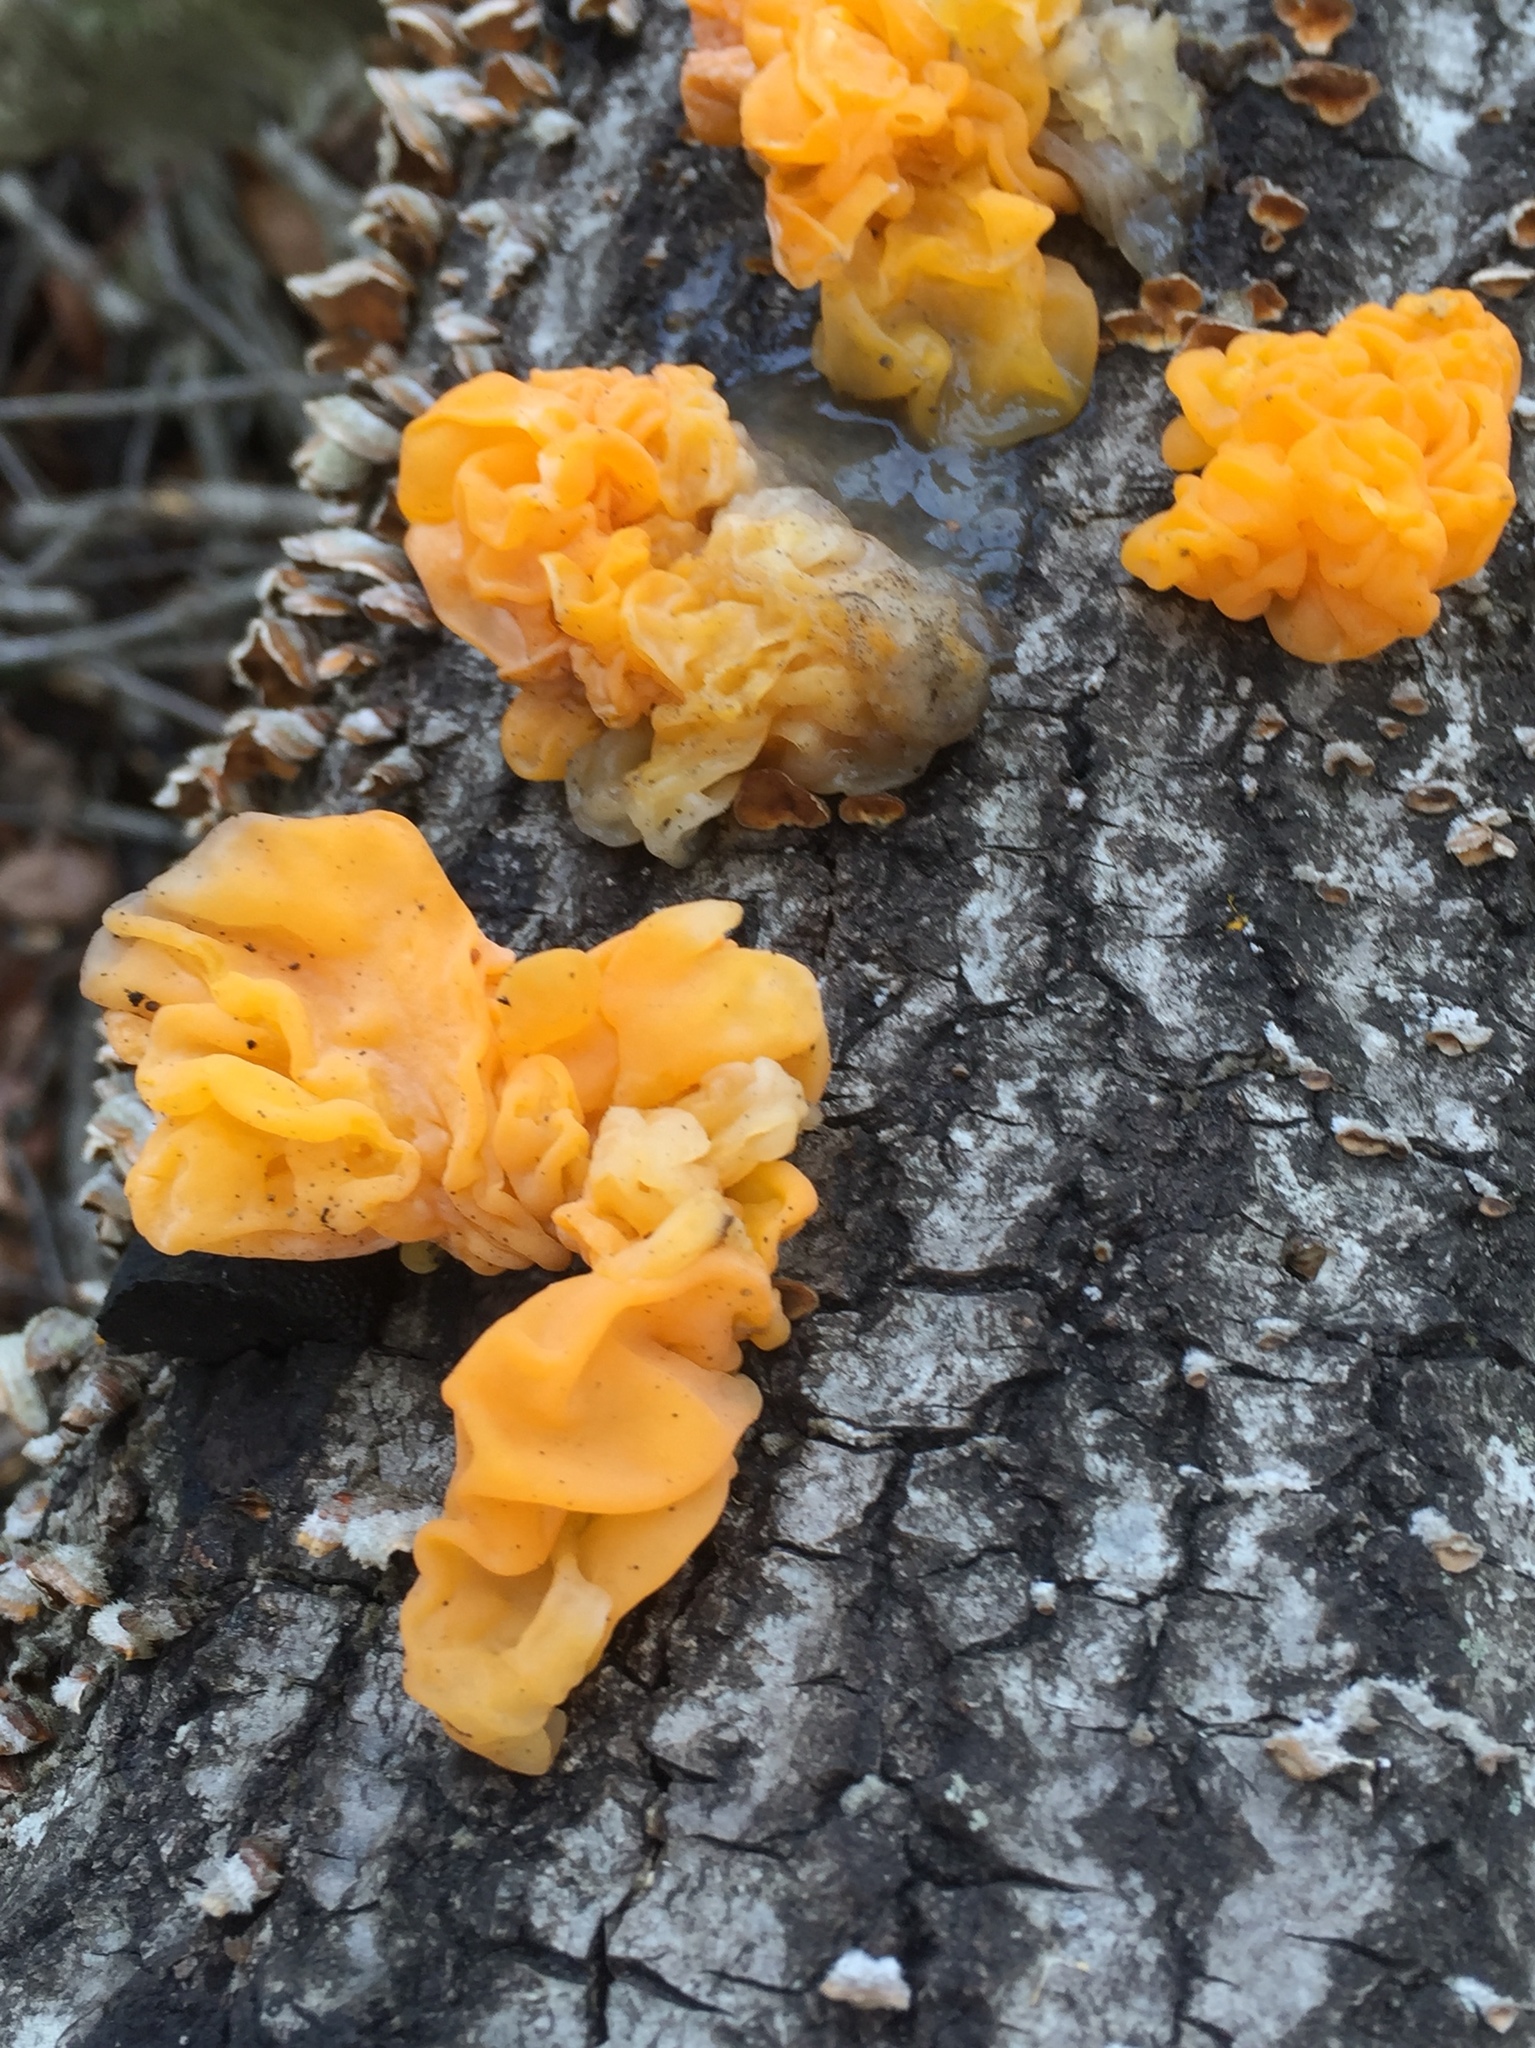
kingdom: Fungi
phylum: Basidiomycota
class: Tremellomycetes
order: Tremellales
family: Naemateliaceae
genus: Naematelia
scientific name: Naematelia aurantia
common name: Golden ear
